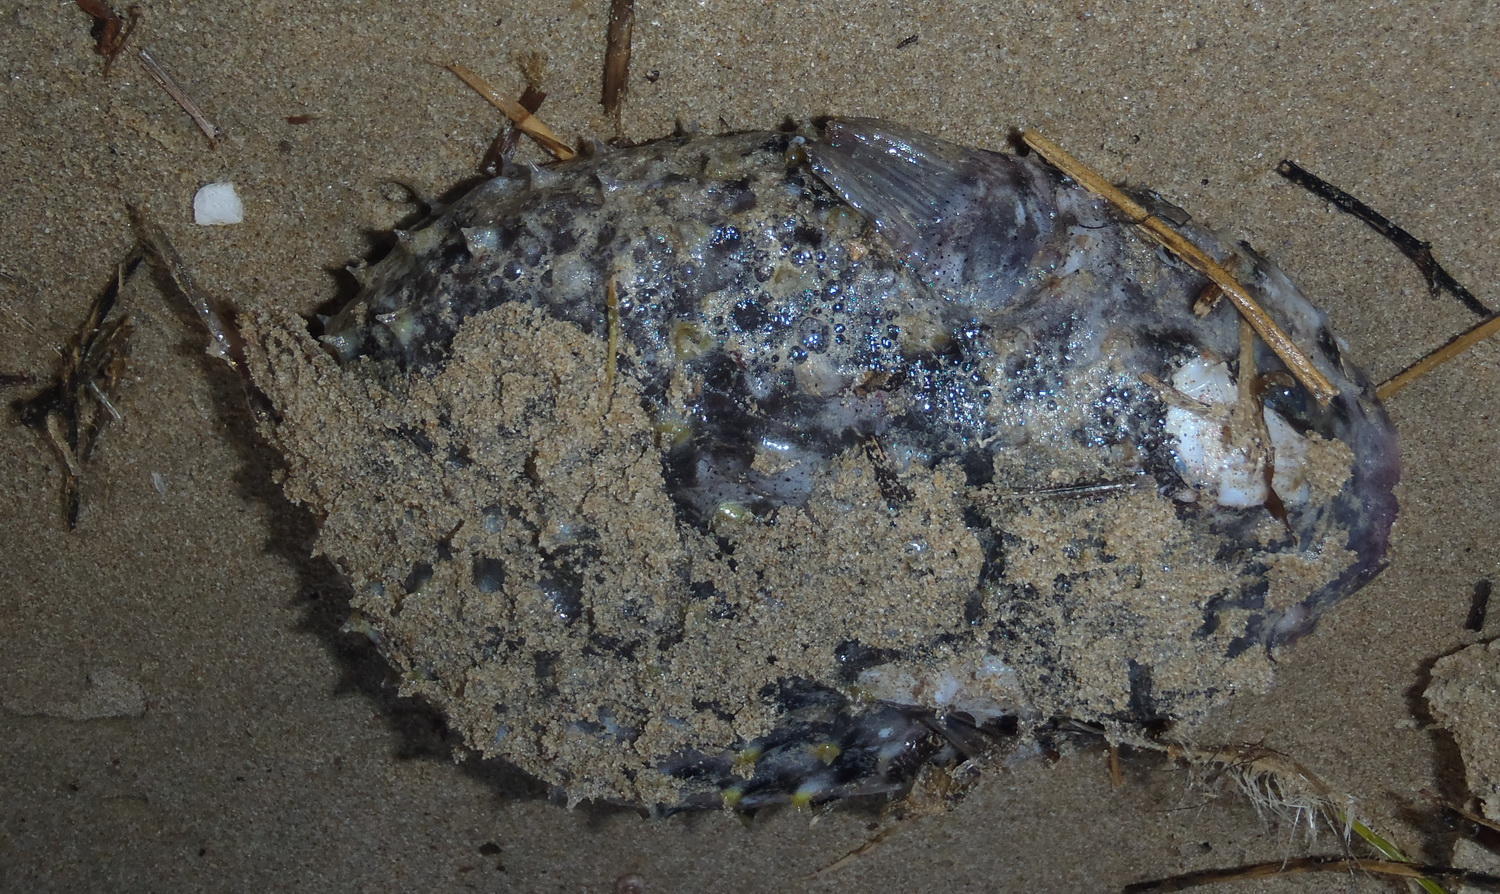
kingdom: Animalia
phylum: Chordata
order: Tetraodontiformes
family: Diodontidae
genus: Cyclichthys
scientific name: Cyclichthys orbicularis
